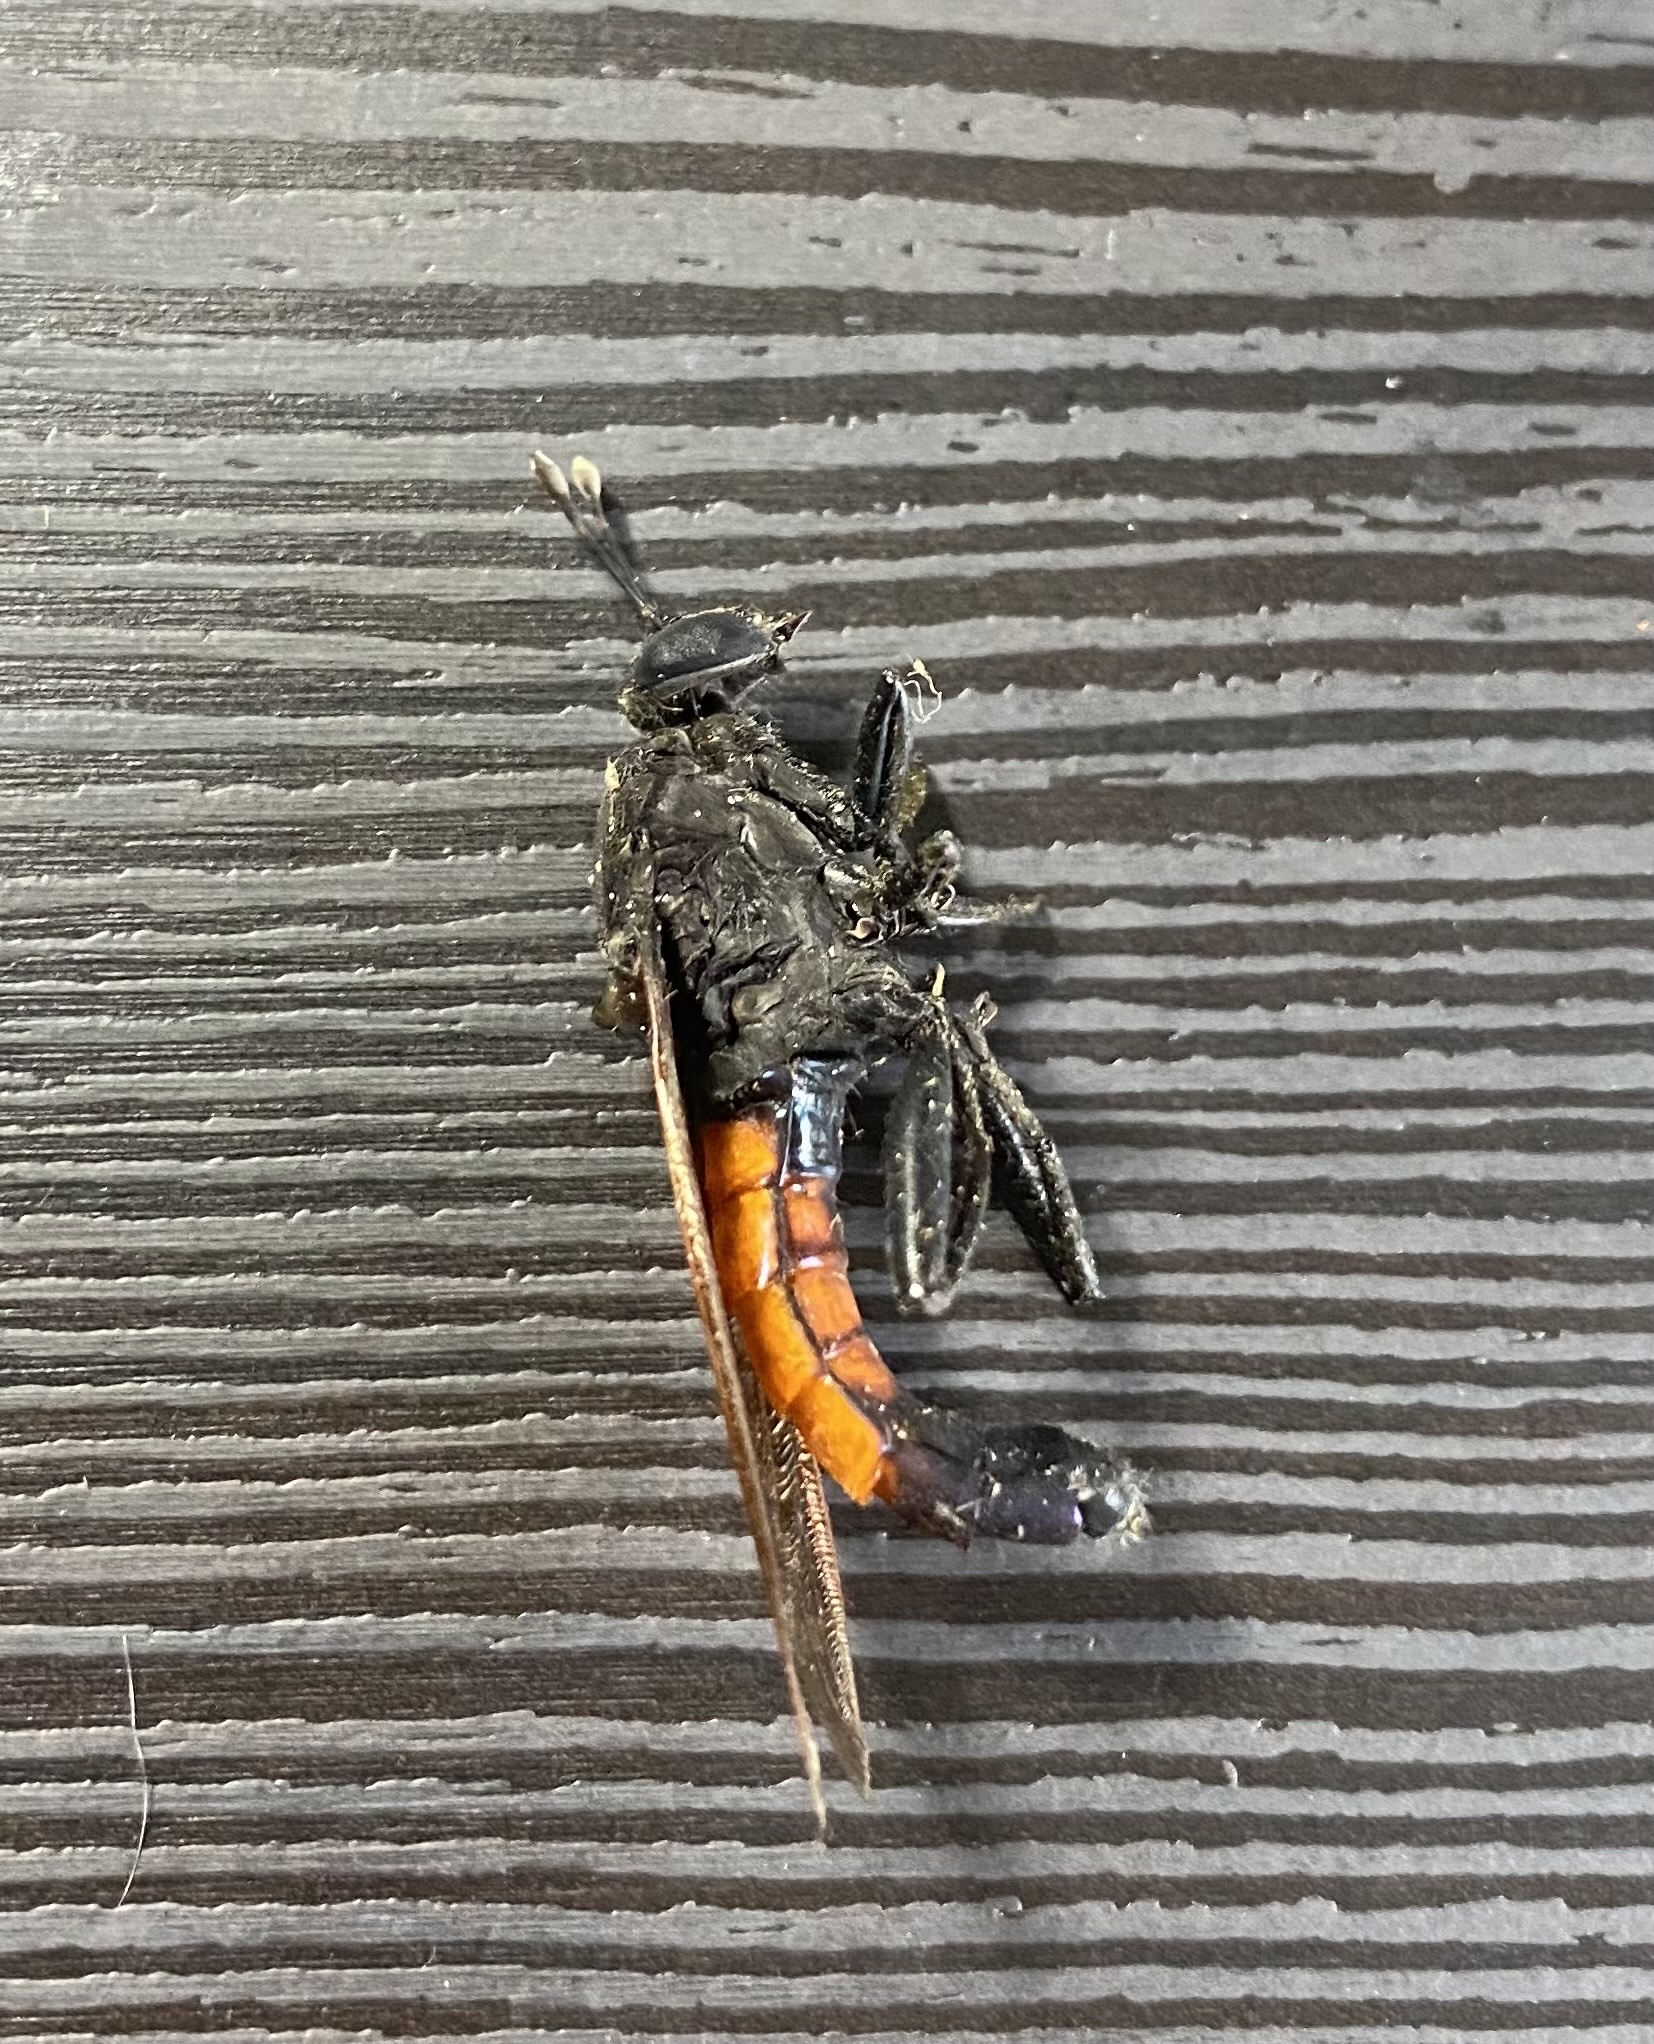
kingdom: Animalia
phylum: Arthropoda
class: Insecta
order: Diptera
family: Mydidae
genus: Messiasia
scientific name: Messiasia pertenuis
